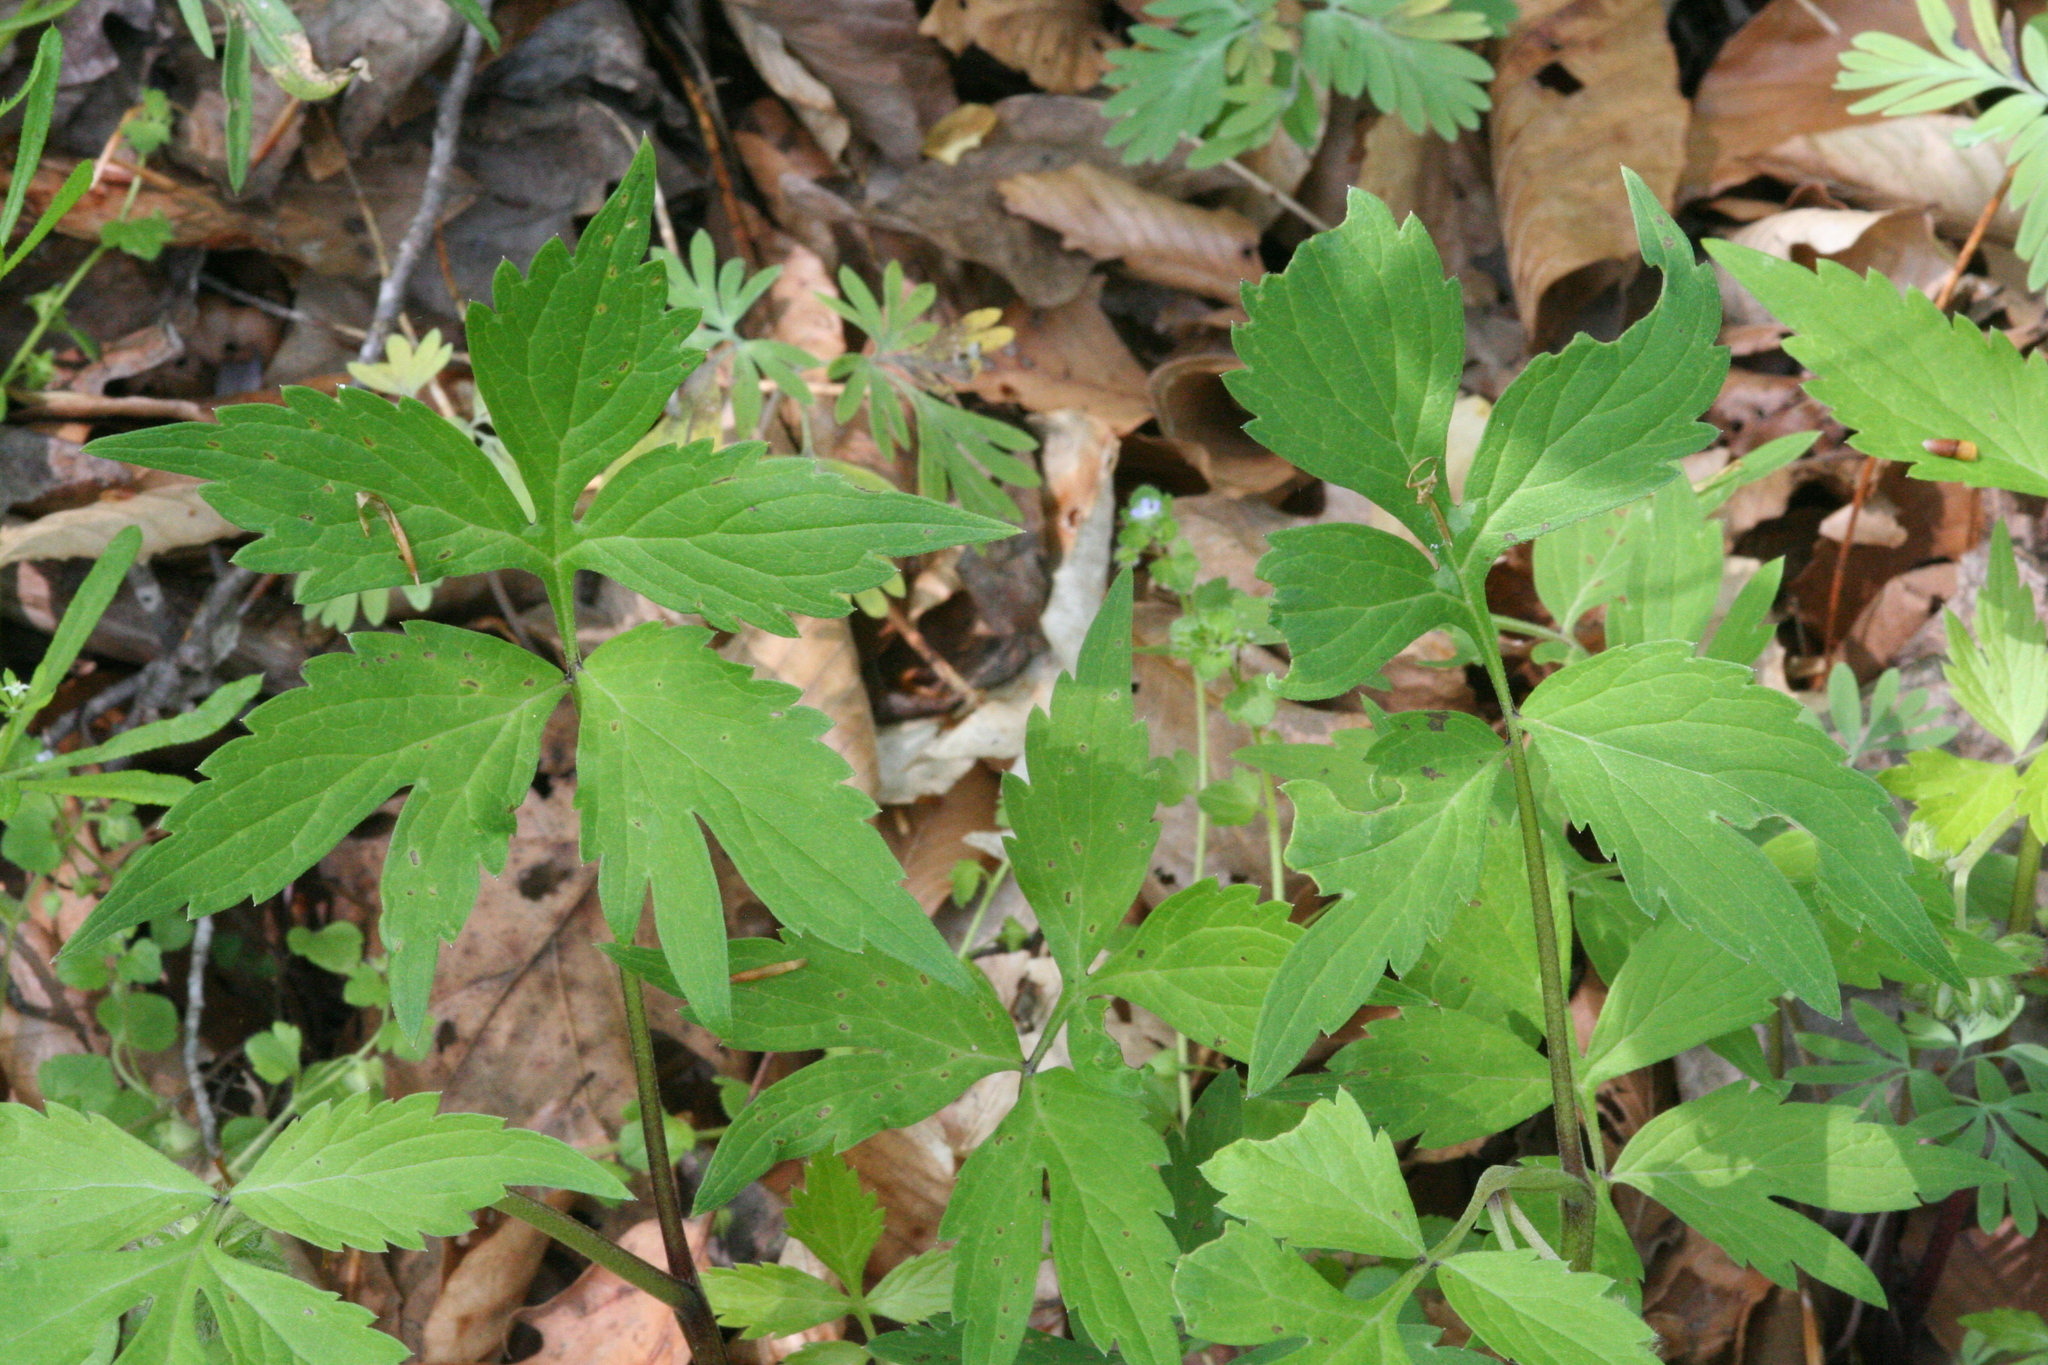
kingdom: Plantae
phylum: Tracheophyta
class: Magnoliopsida
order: Boraginales
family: Hydrophyllaceae
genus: Hydrophyllum
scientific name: Hydrophyllum virginianum
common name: Virginia waterleaf
